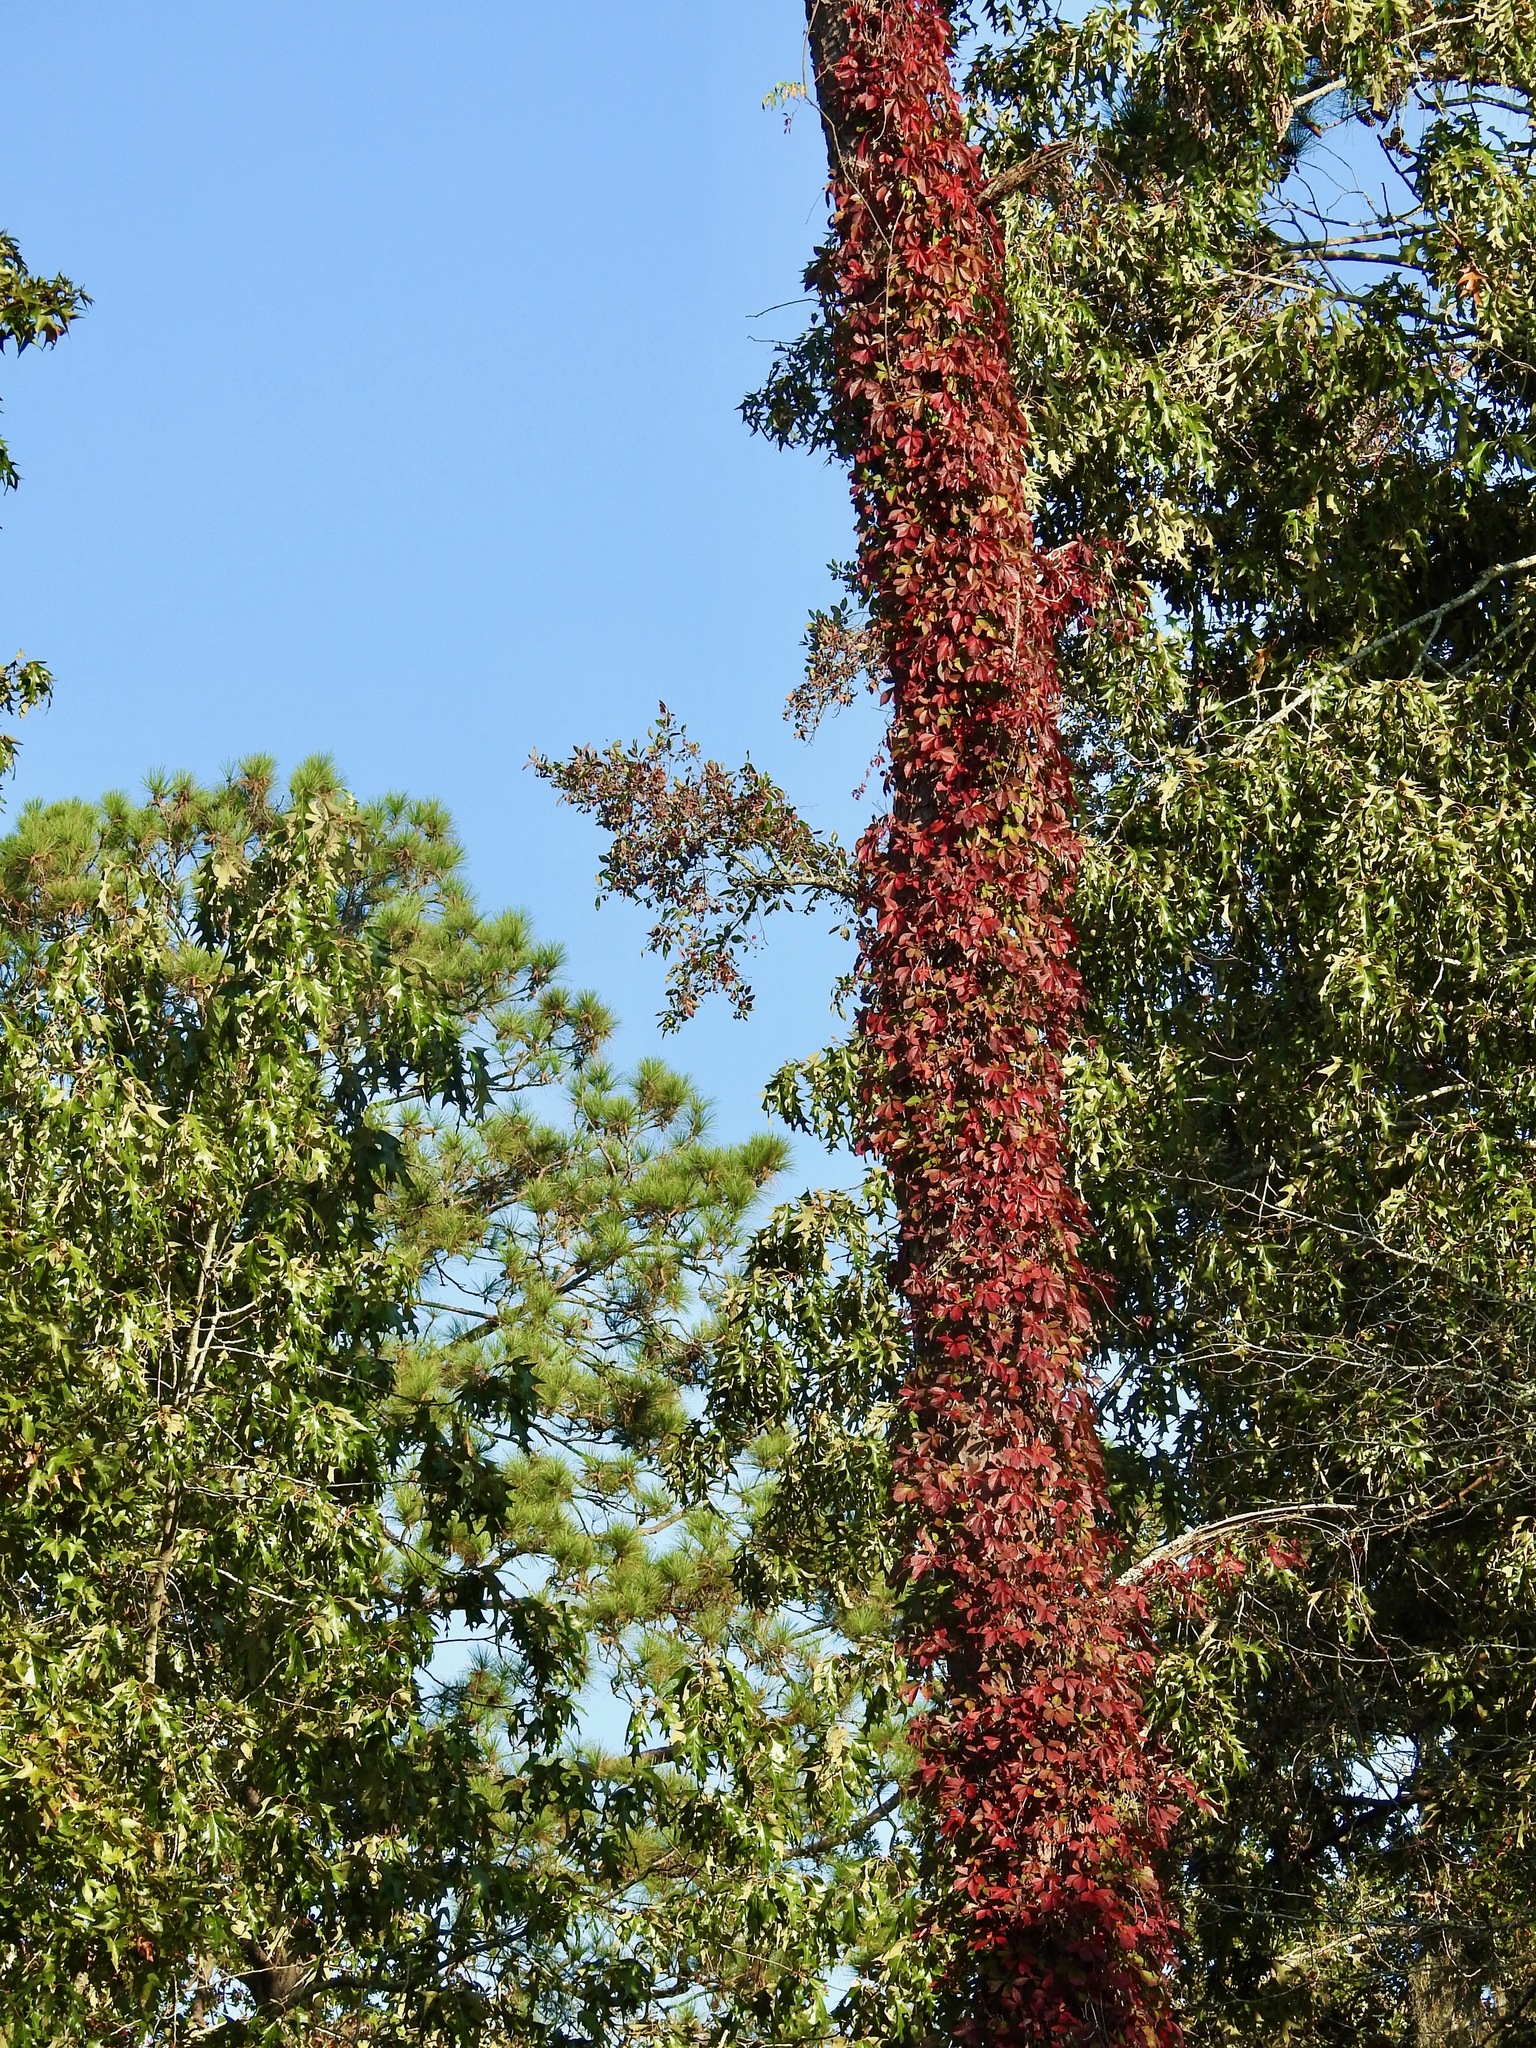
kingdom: Plantae
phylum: Tracheophyta
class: Magnoliopsida
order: Vitales
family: Vitaceae
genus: Parthenocissus
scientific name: Parthenocissus quinquefolia
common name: Virginia-creeper
